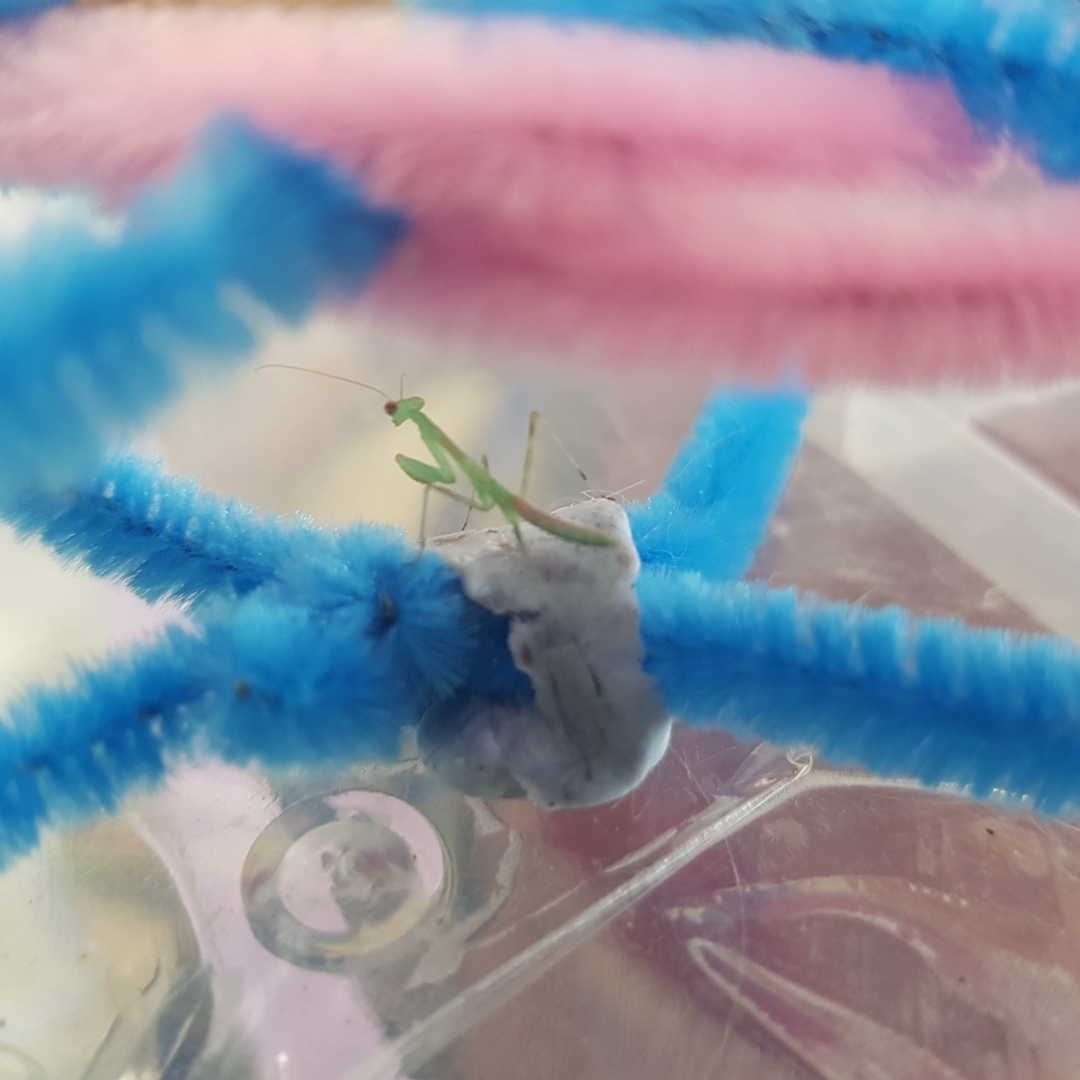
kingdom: Animalia
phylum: Arthropoda
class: Insecta
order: Mantodea
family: Miomantidae
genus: Miomantis
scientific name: Miomantis caffra
